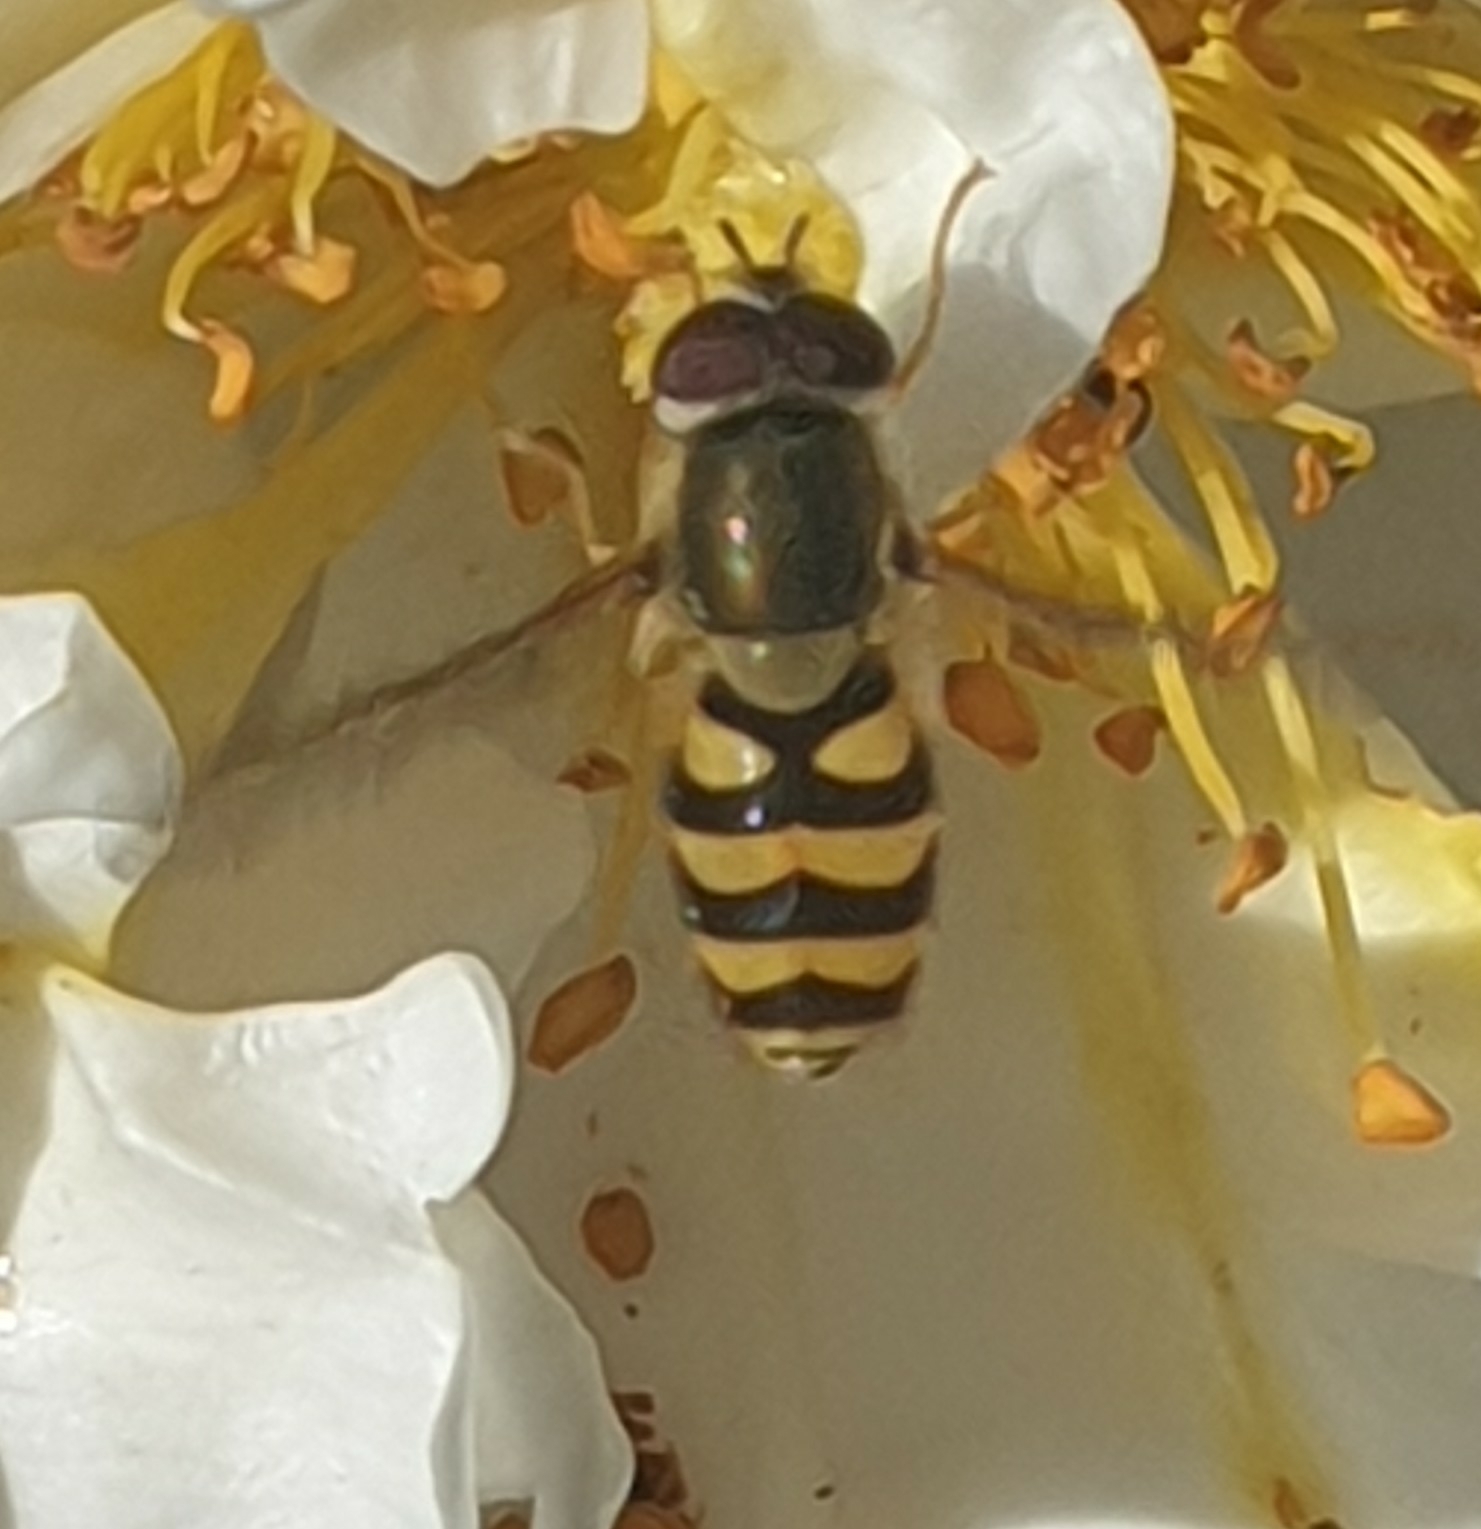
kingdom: Animalia
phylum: Arthropoda
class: Insecta
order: Diptera
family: Syrphidae
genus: Syrphus
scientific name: Syrphus
